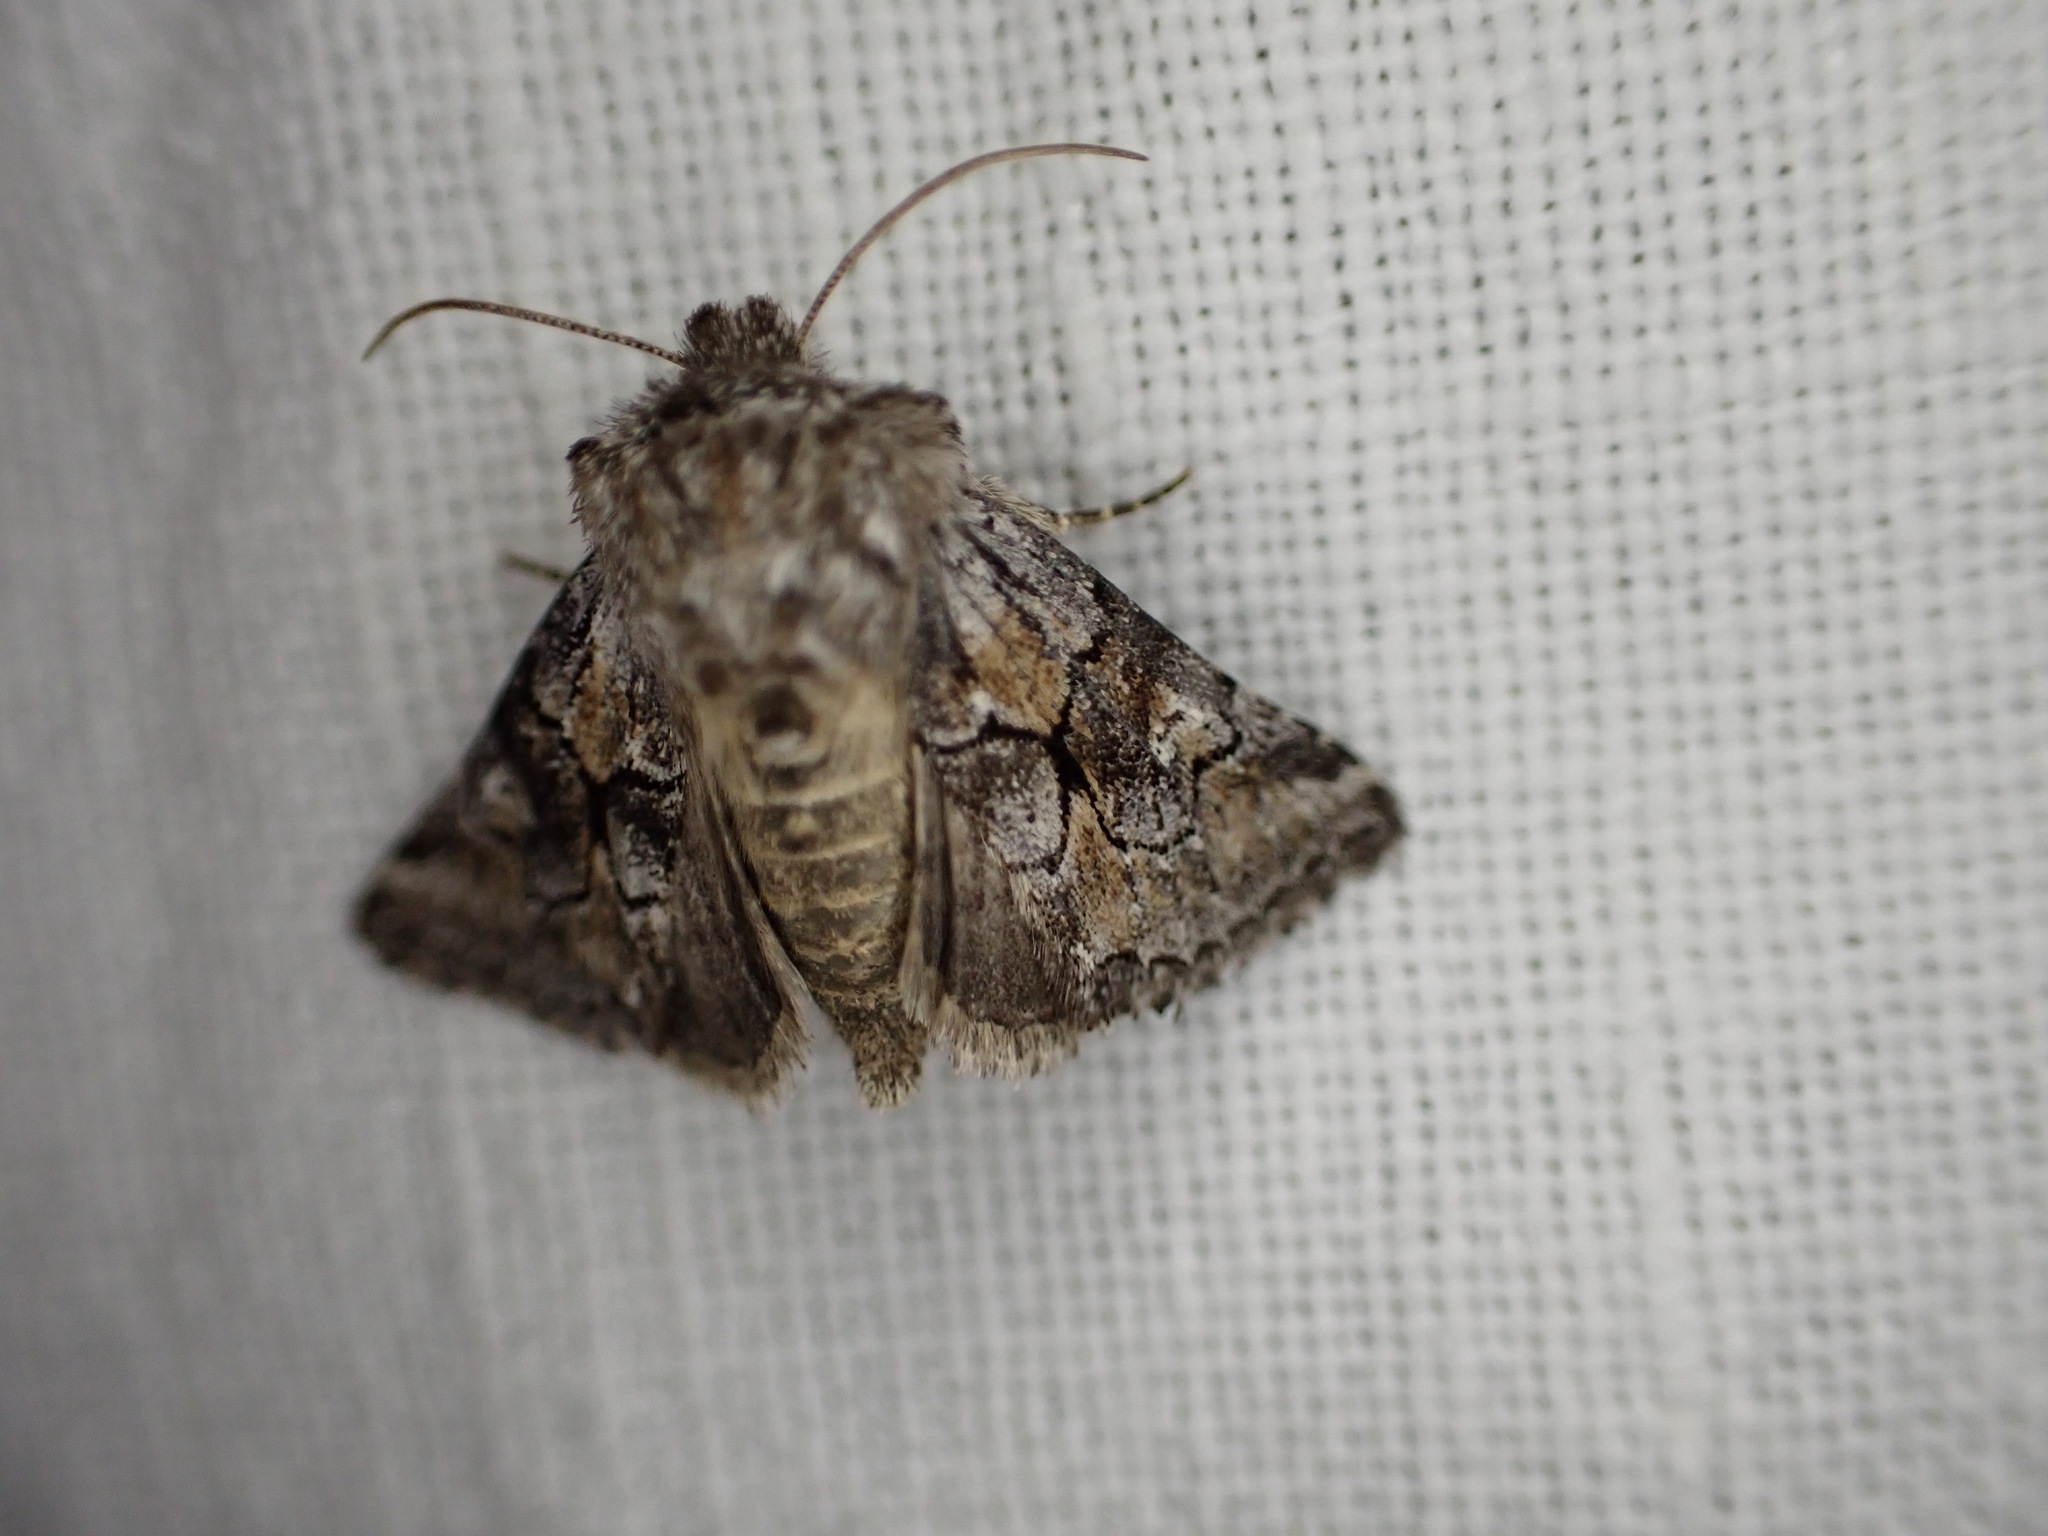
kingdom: Animalia
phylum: Arthropoda
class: Insecta
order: Lepidoptera
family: Noctuidae
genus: Cleonymia
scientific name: Cleonymia yvanii
